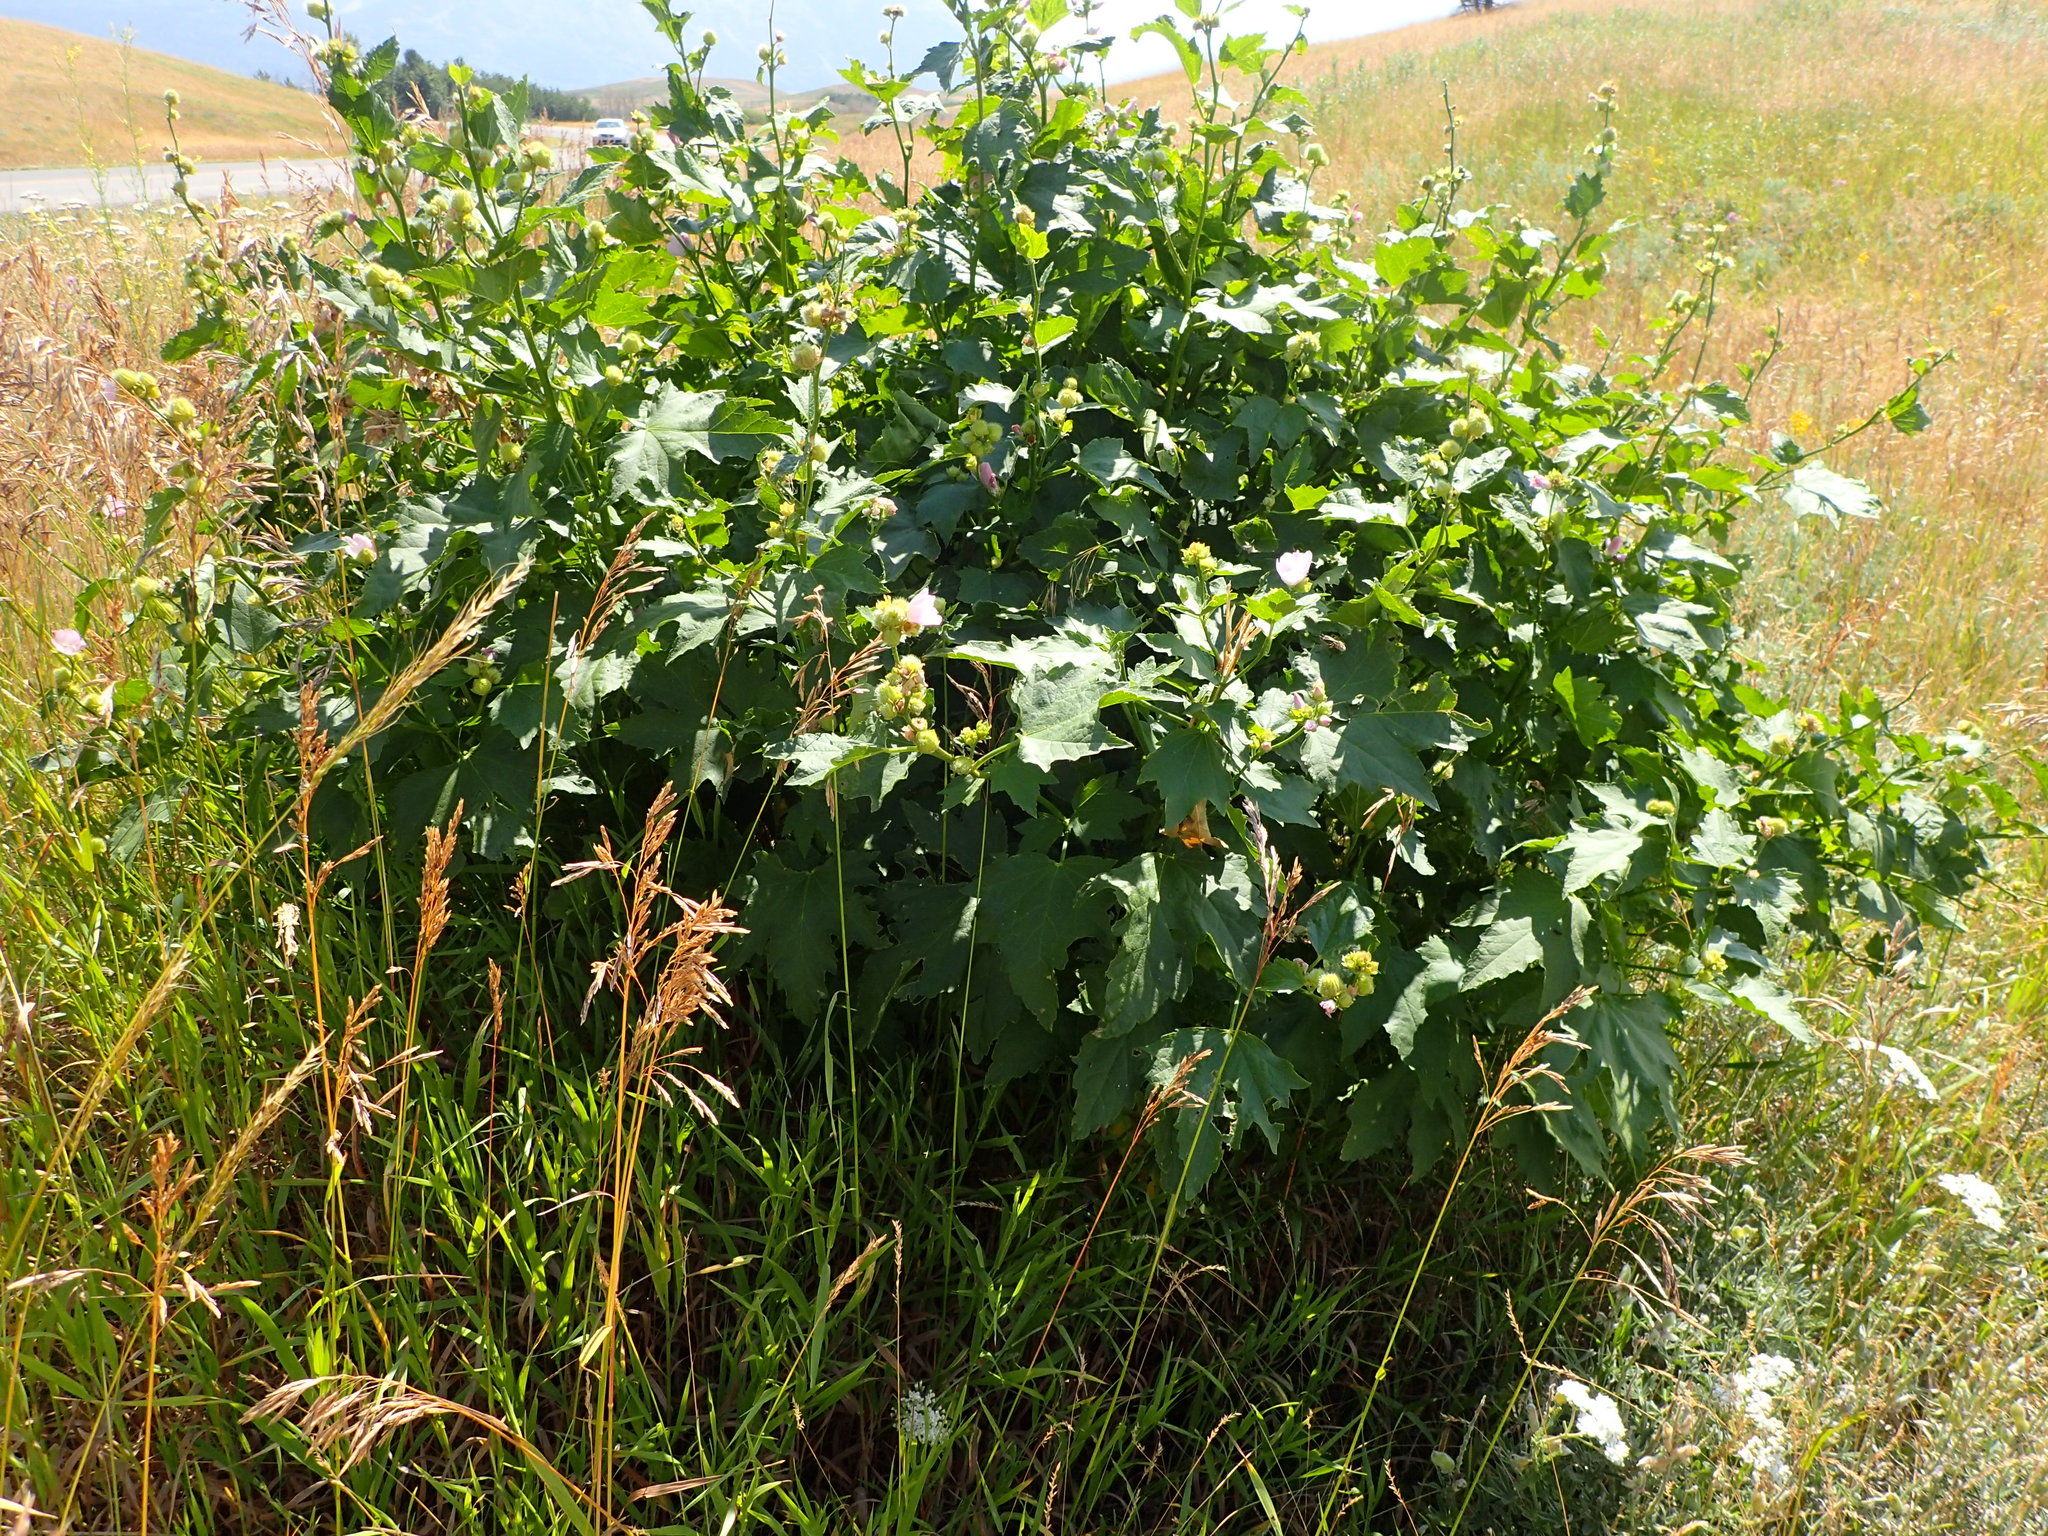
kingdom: Plantae
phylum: Tracheophyta
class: Magnoliopsida
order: Malvales
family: Malvaceae
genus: Iliamna
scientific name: Iliamna rivularis
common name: Wild hollyhock
